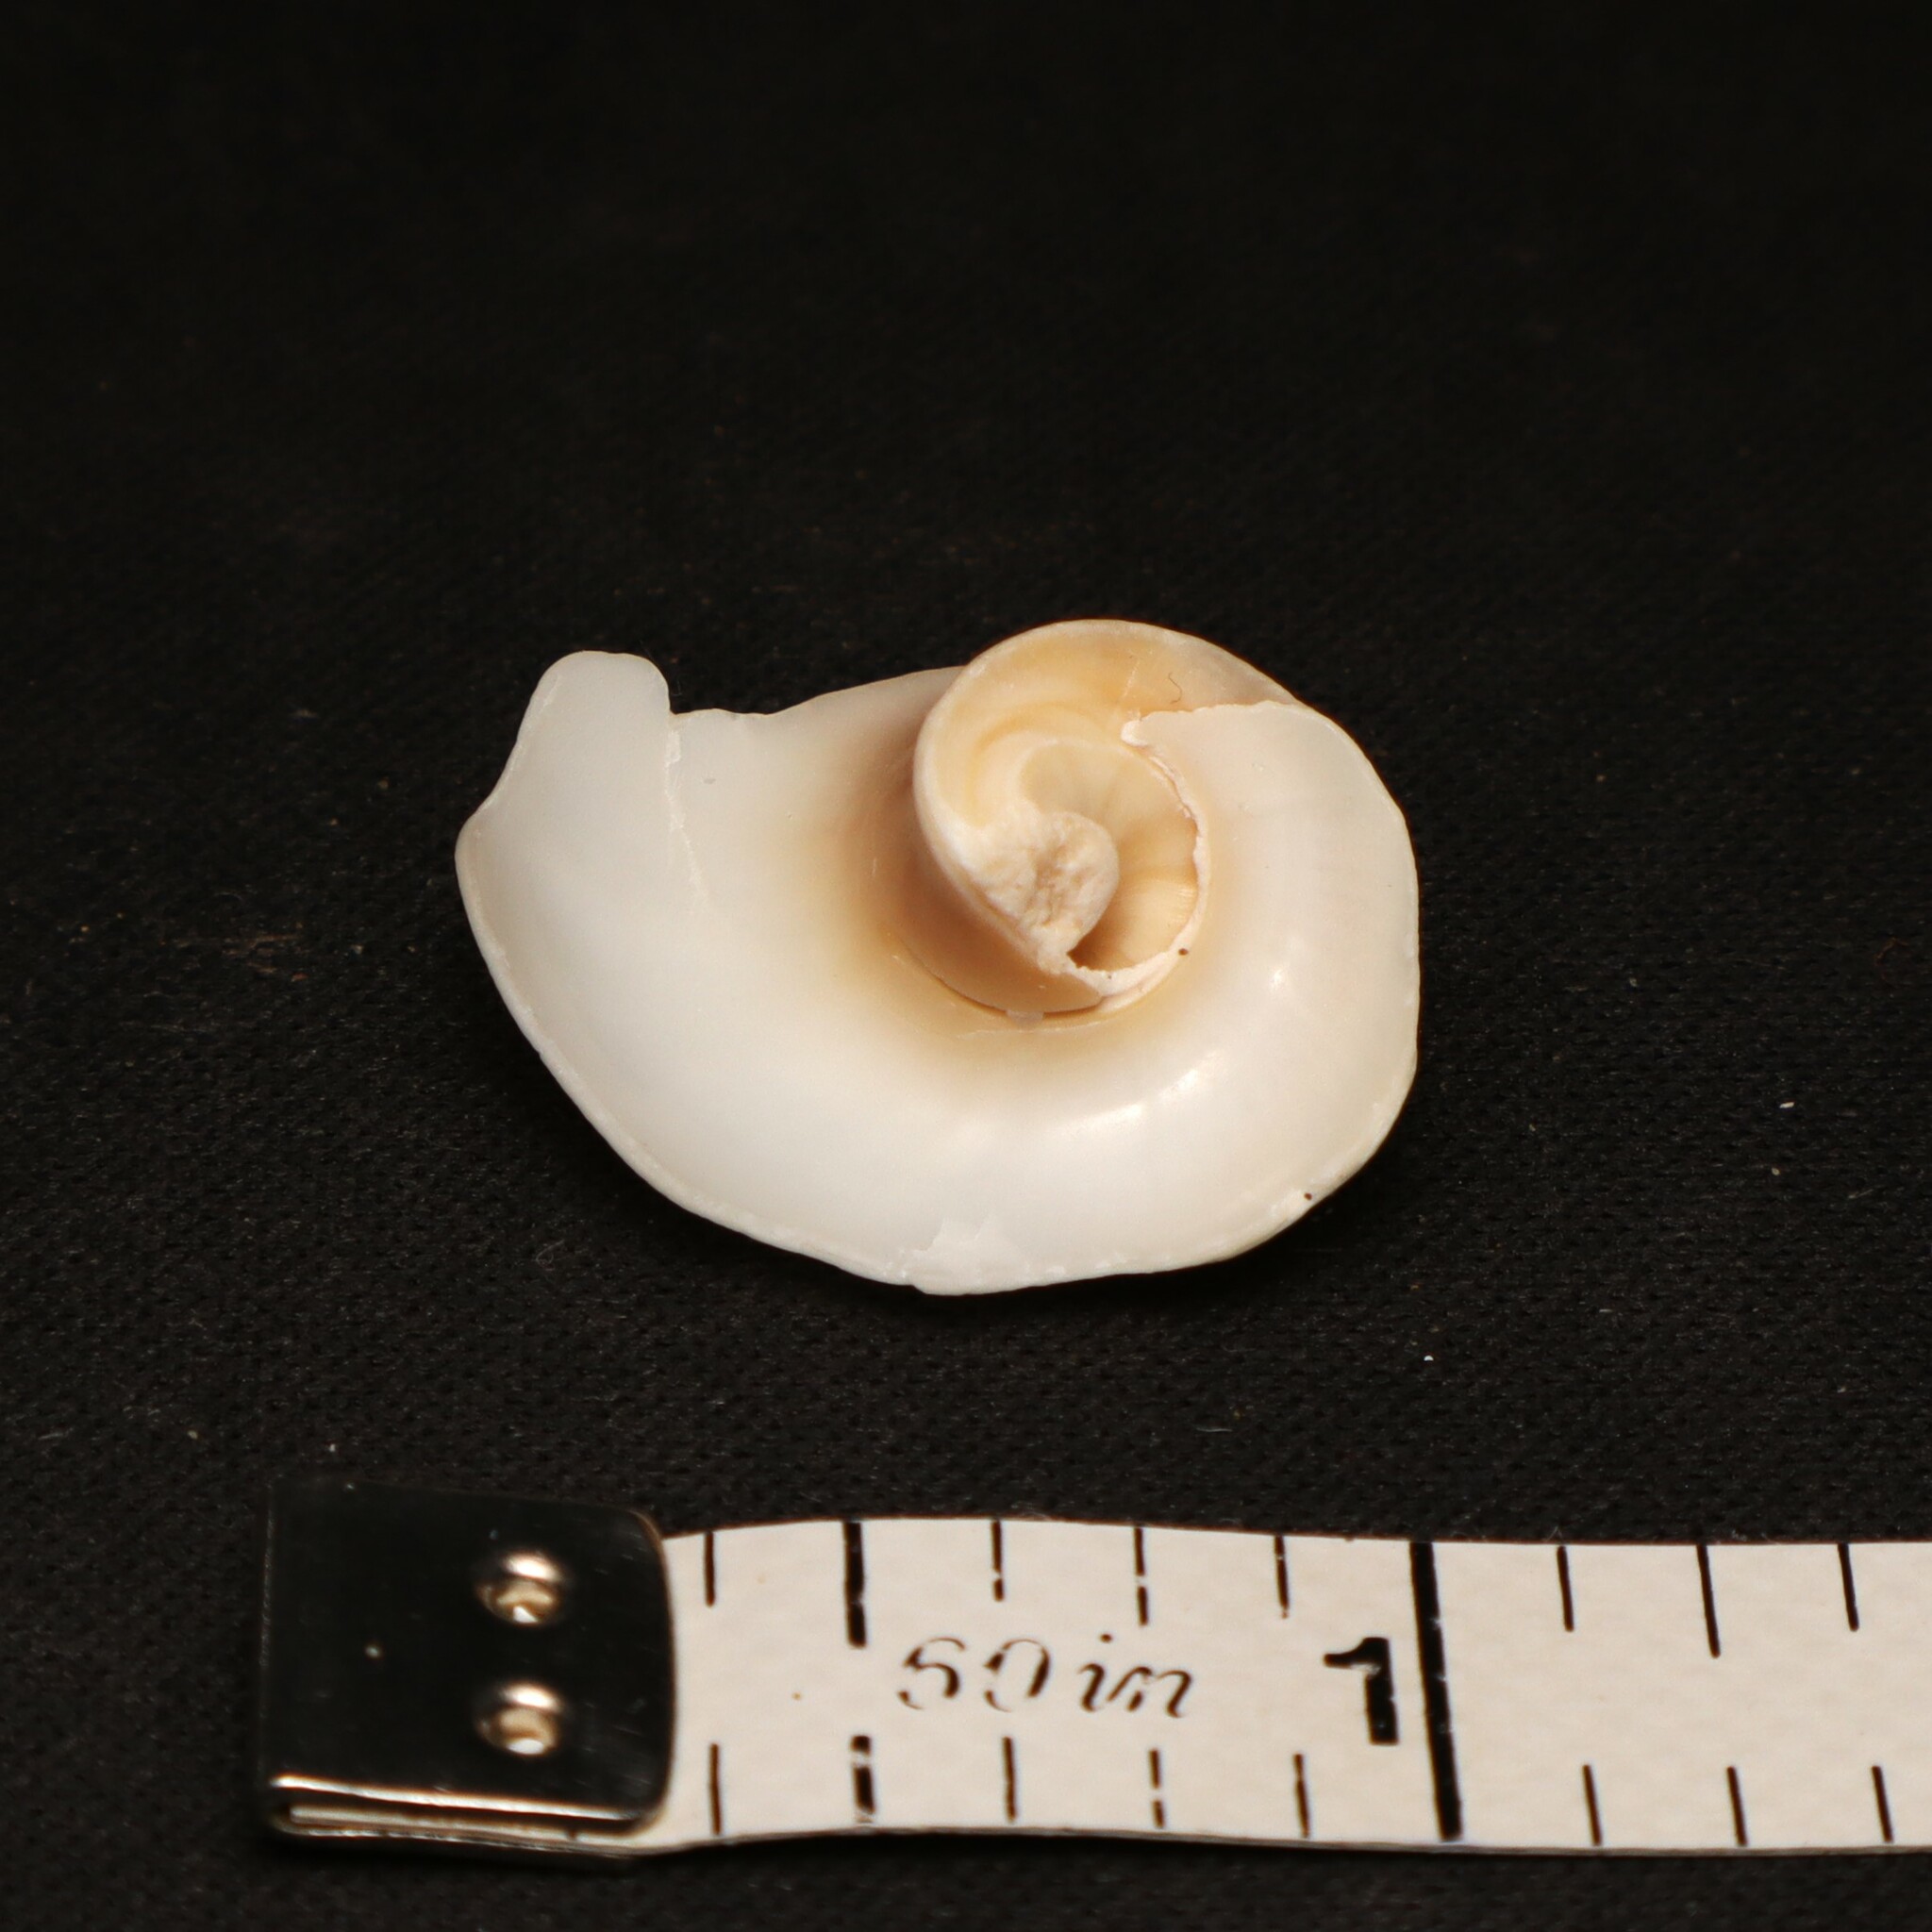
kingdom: Animalia
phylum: Mollusca
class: Gastropoda
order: Littorinimorpha
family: Naticidae
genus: Neverita
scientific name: Neverita duplicata
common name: Lobed moonsnail
